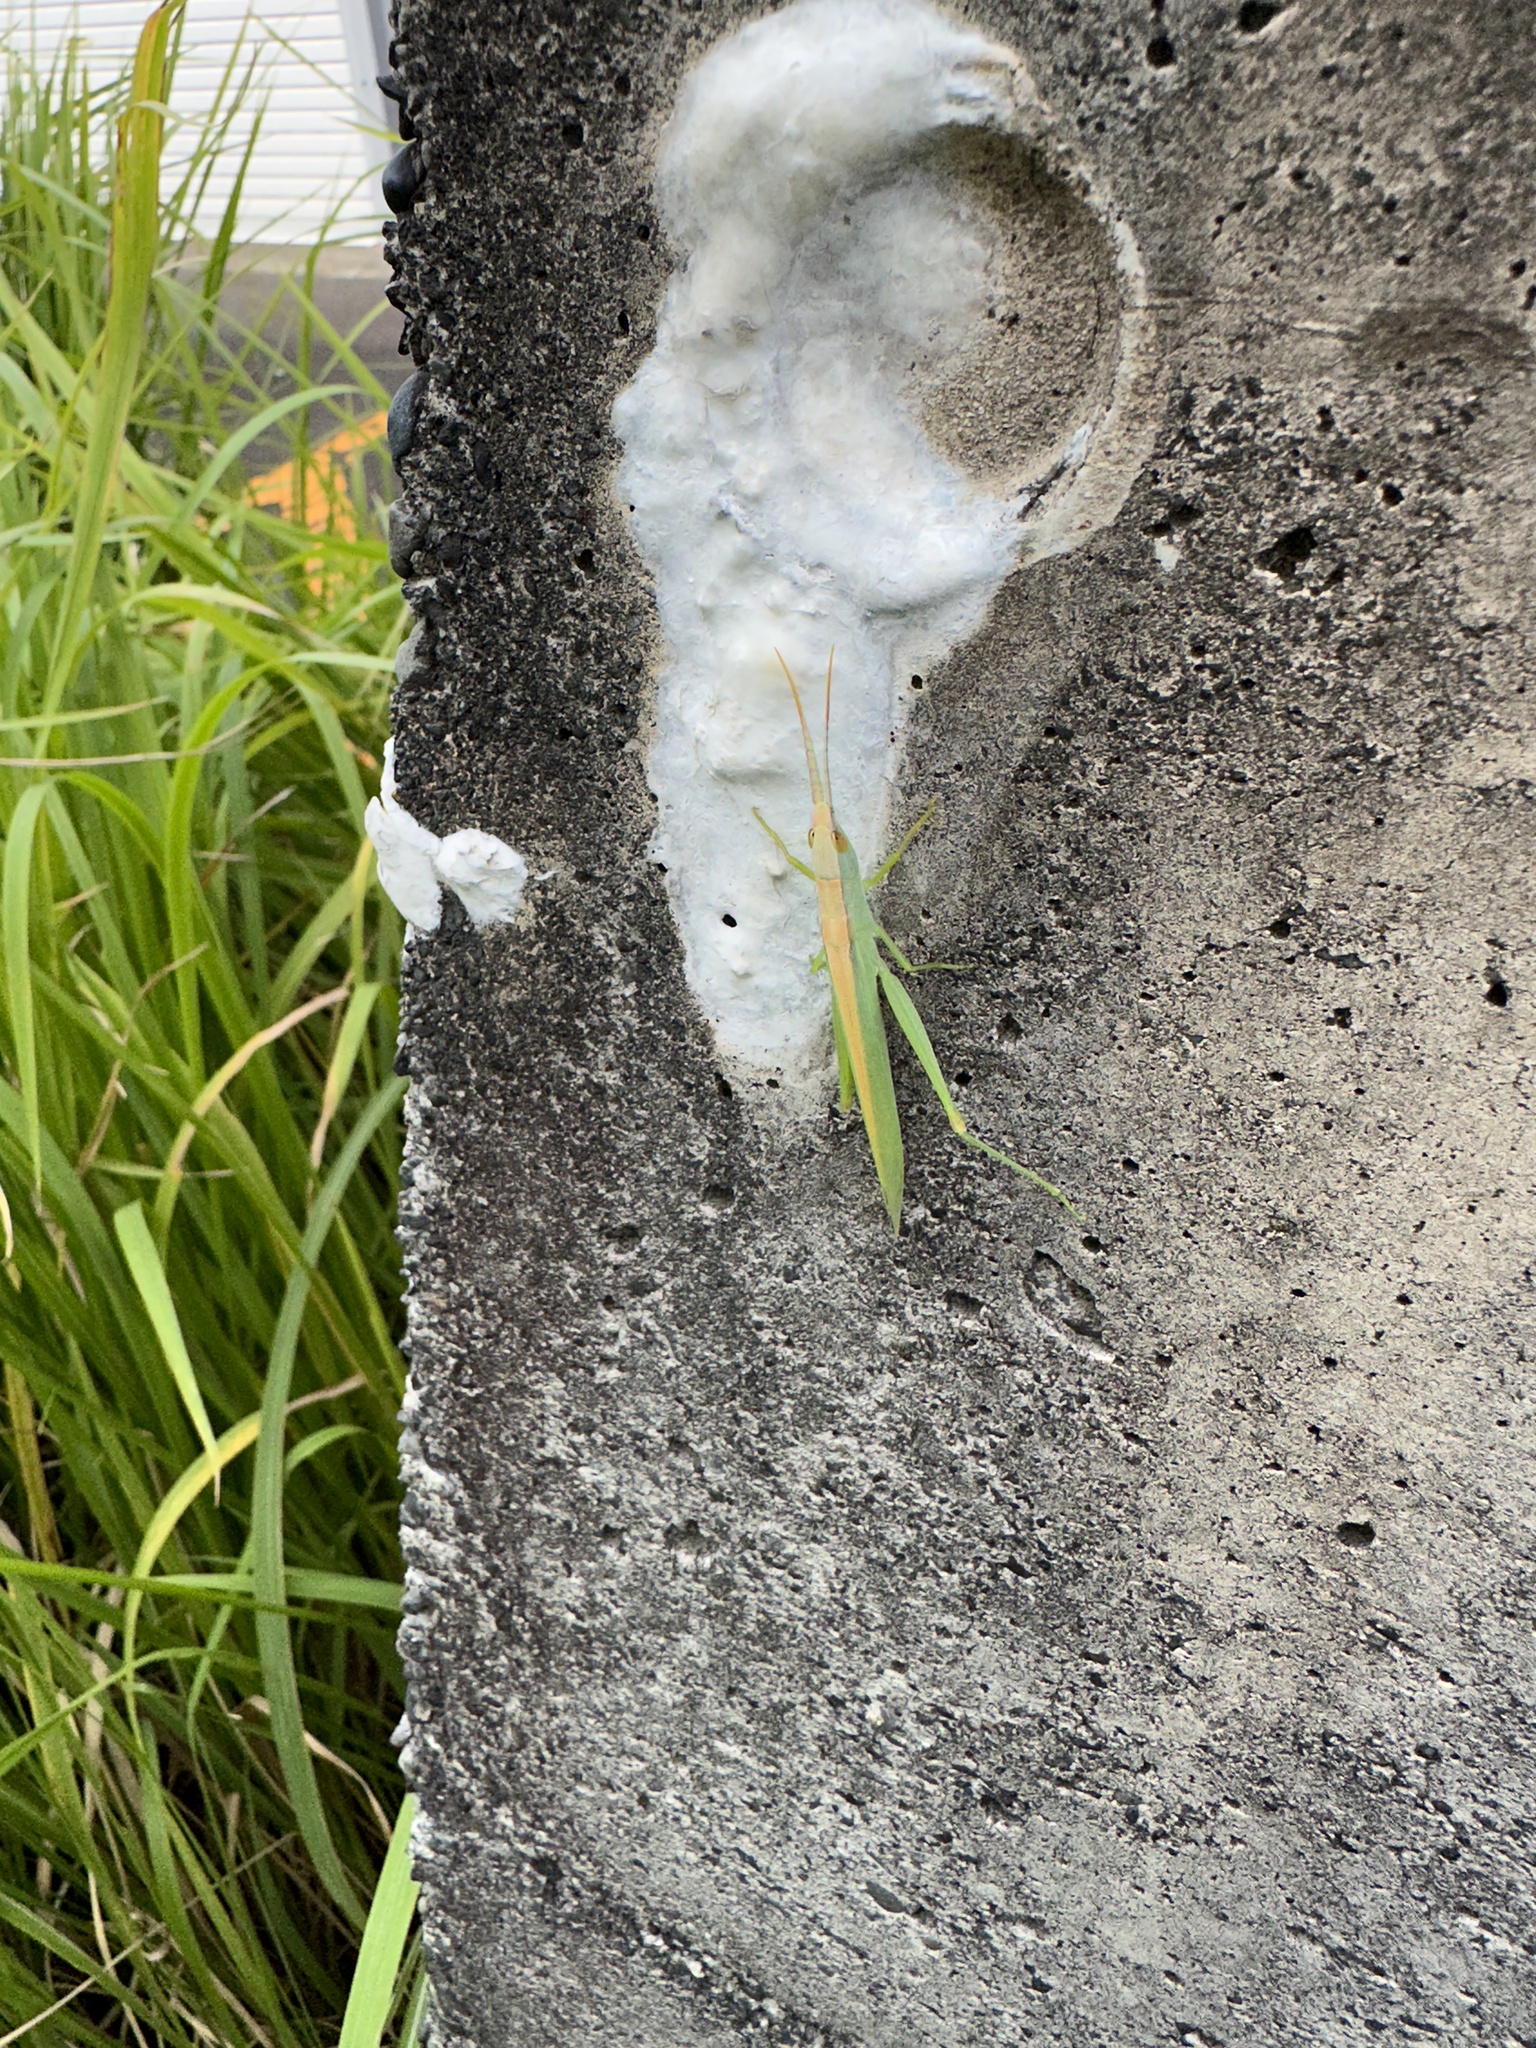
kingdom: Animalia
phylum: Arthropoda
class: Insecta
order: Orthoptera
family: Acrididae
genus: Gonista
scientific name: Gonista bicolor
